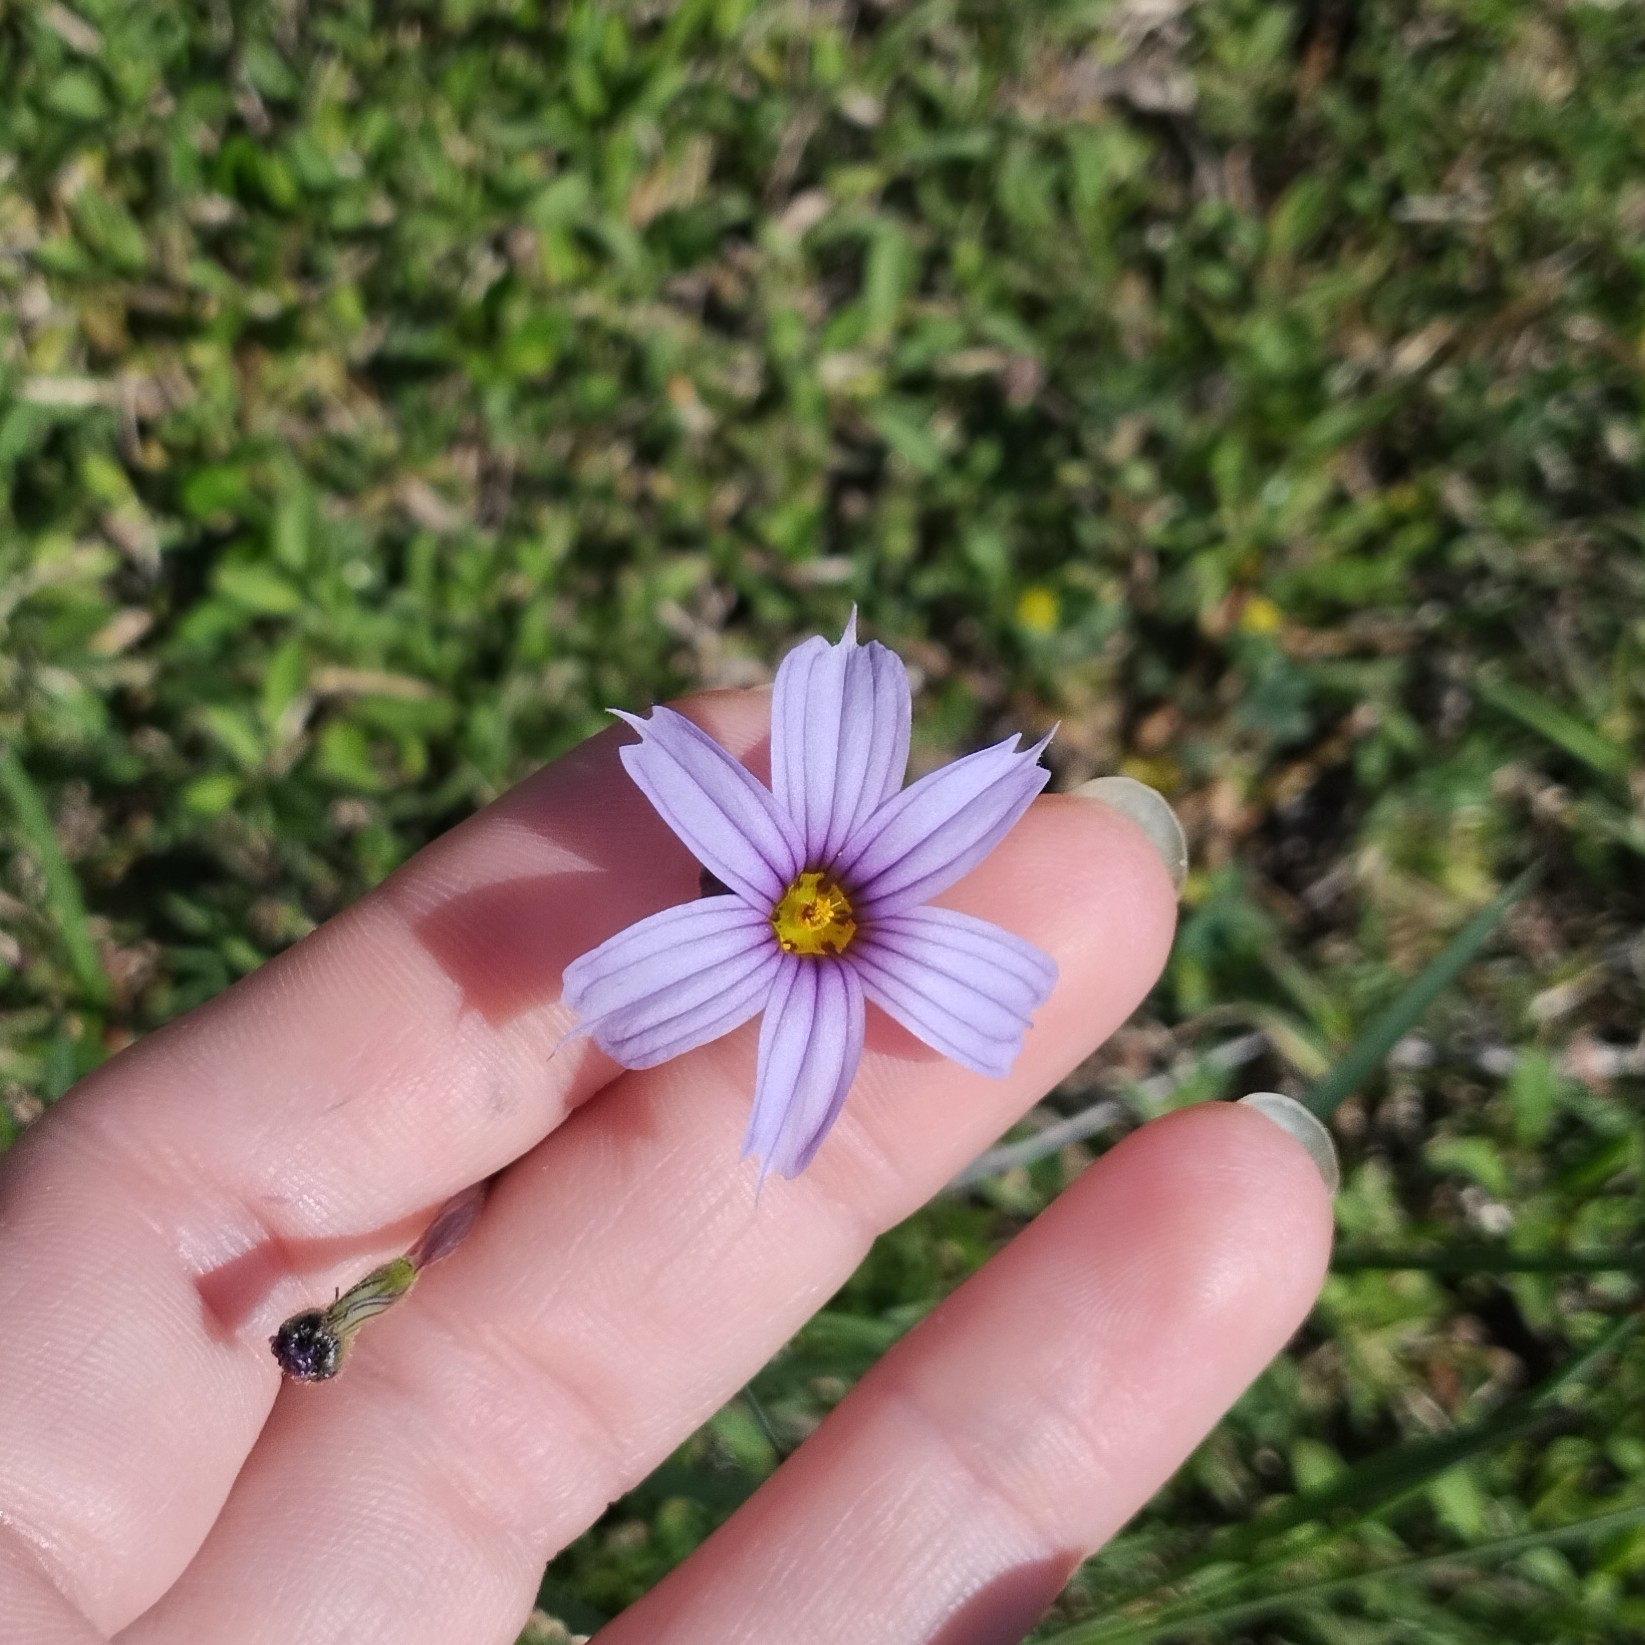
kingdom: Plantae
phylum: Tracheophyta
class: Liliopsida
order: Asparagales
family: Iridaceae
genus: Sisyrinchium
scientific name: Sisyrinchium platense
